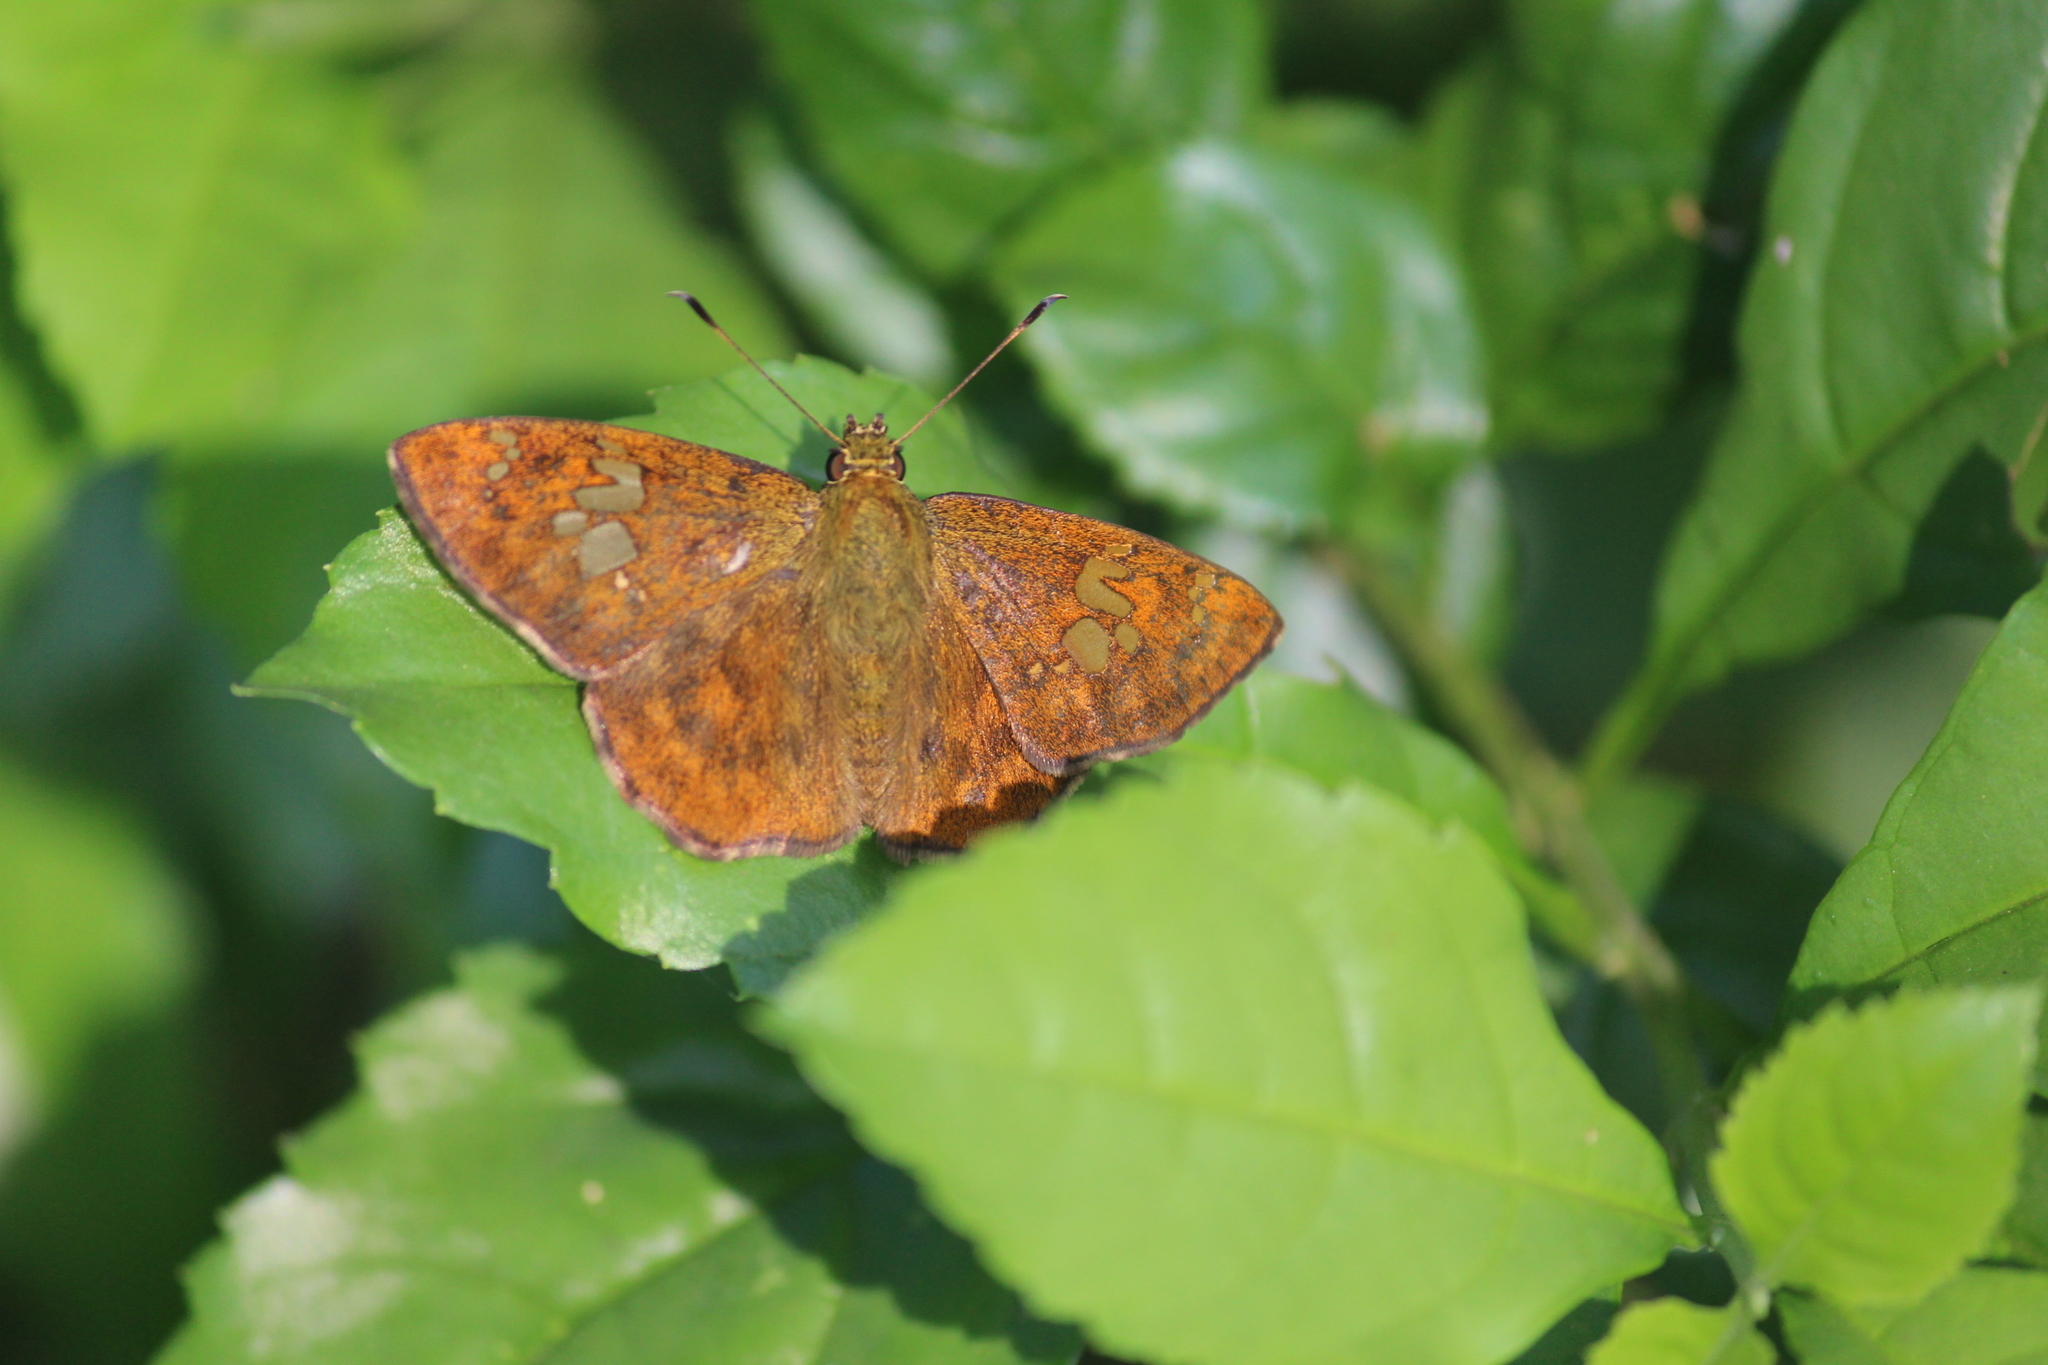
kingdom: Animalia
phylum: Arthropoda
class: Insecta
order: Lepidoptera
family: Hesperiidae
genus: Pseudocoladenia
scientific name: Pseudocoladenia dan
